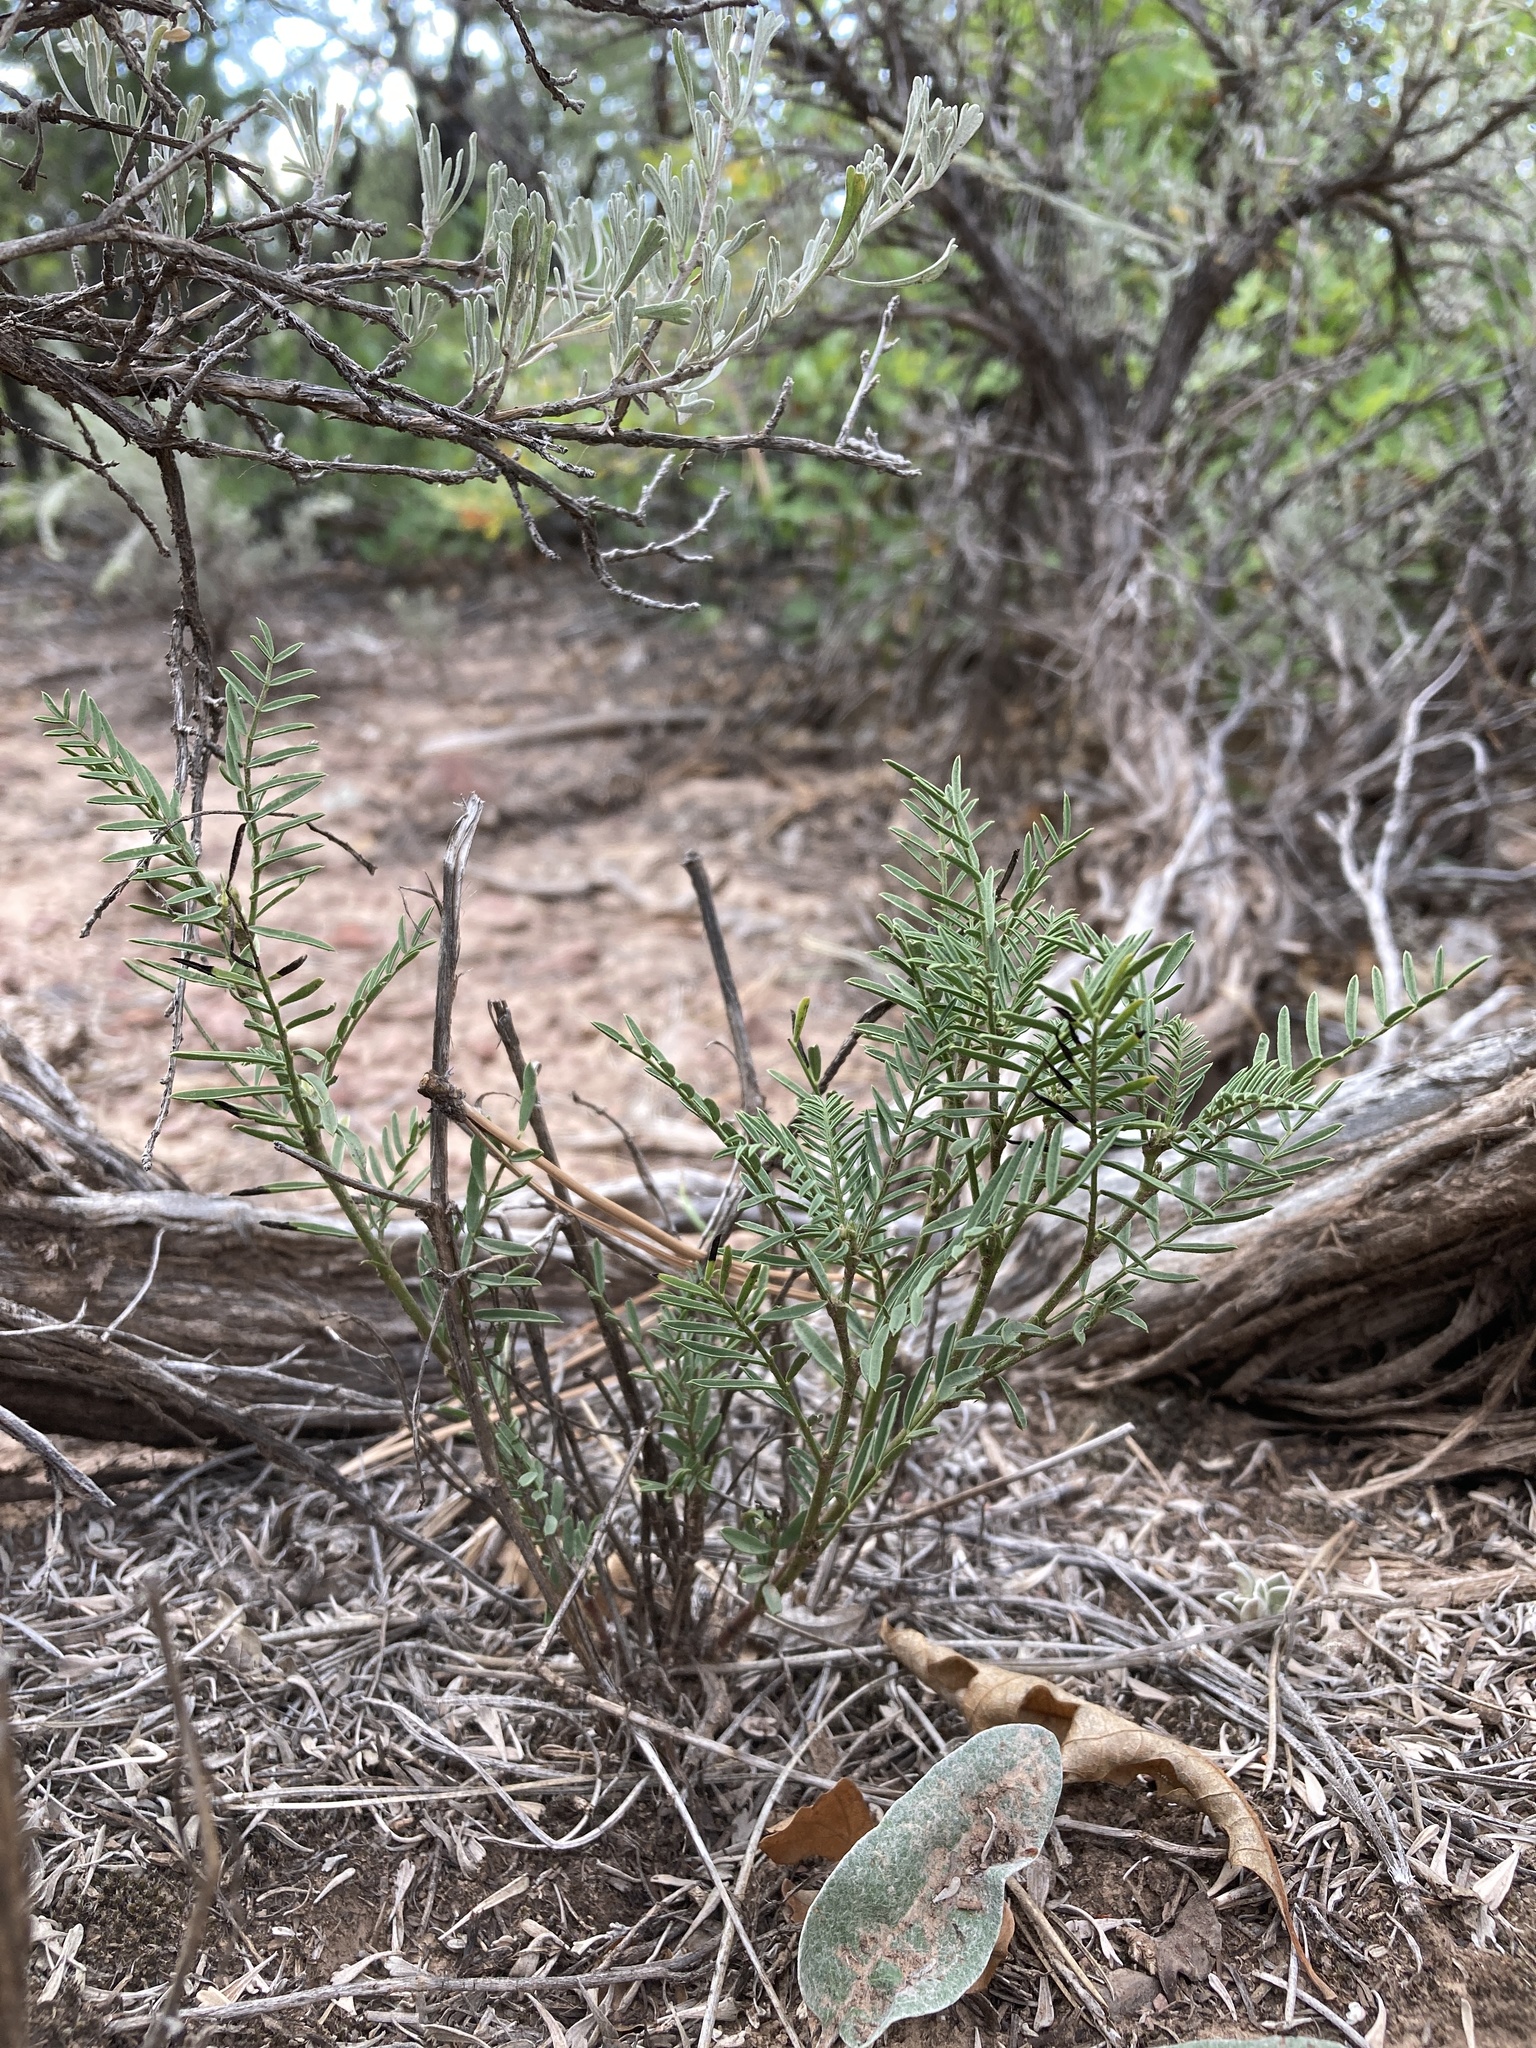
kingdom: Plantae
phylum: Tracheophyta
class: Magnoliopsida
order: Fabales
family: Fabaceae
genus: Astragalus
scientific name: Astragalus tenellus
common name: Pulse milk-vetch
